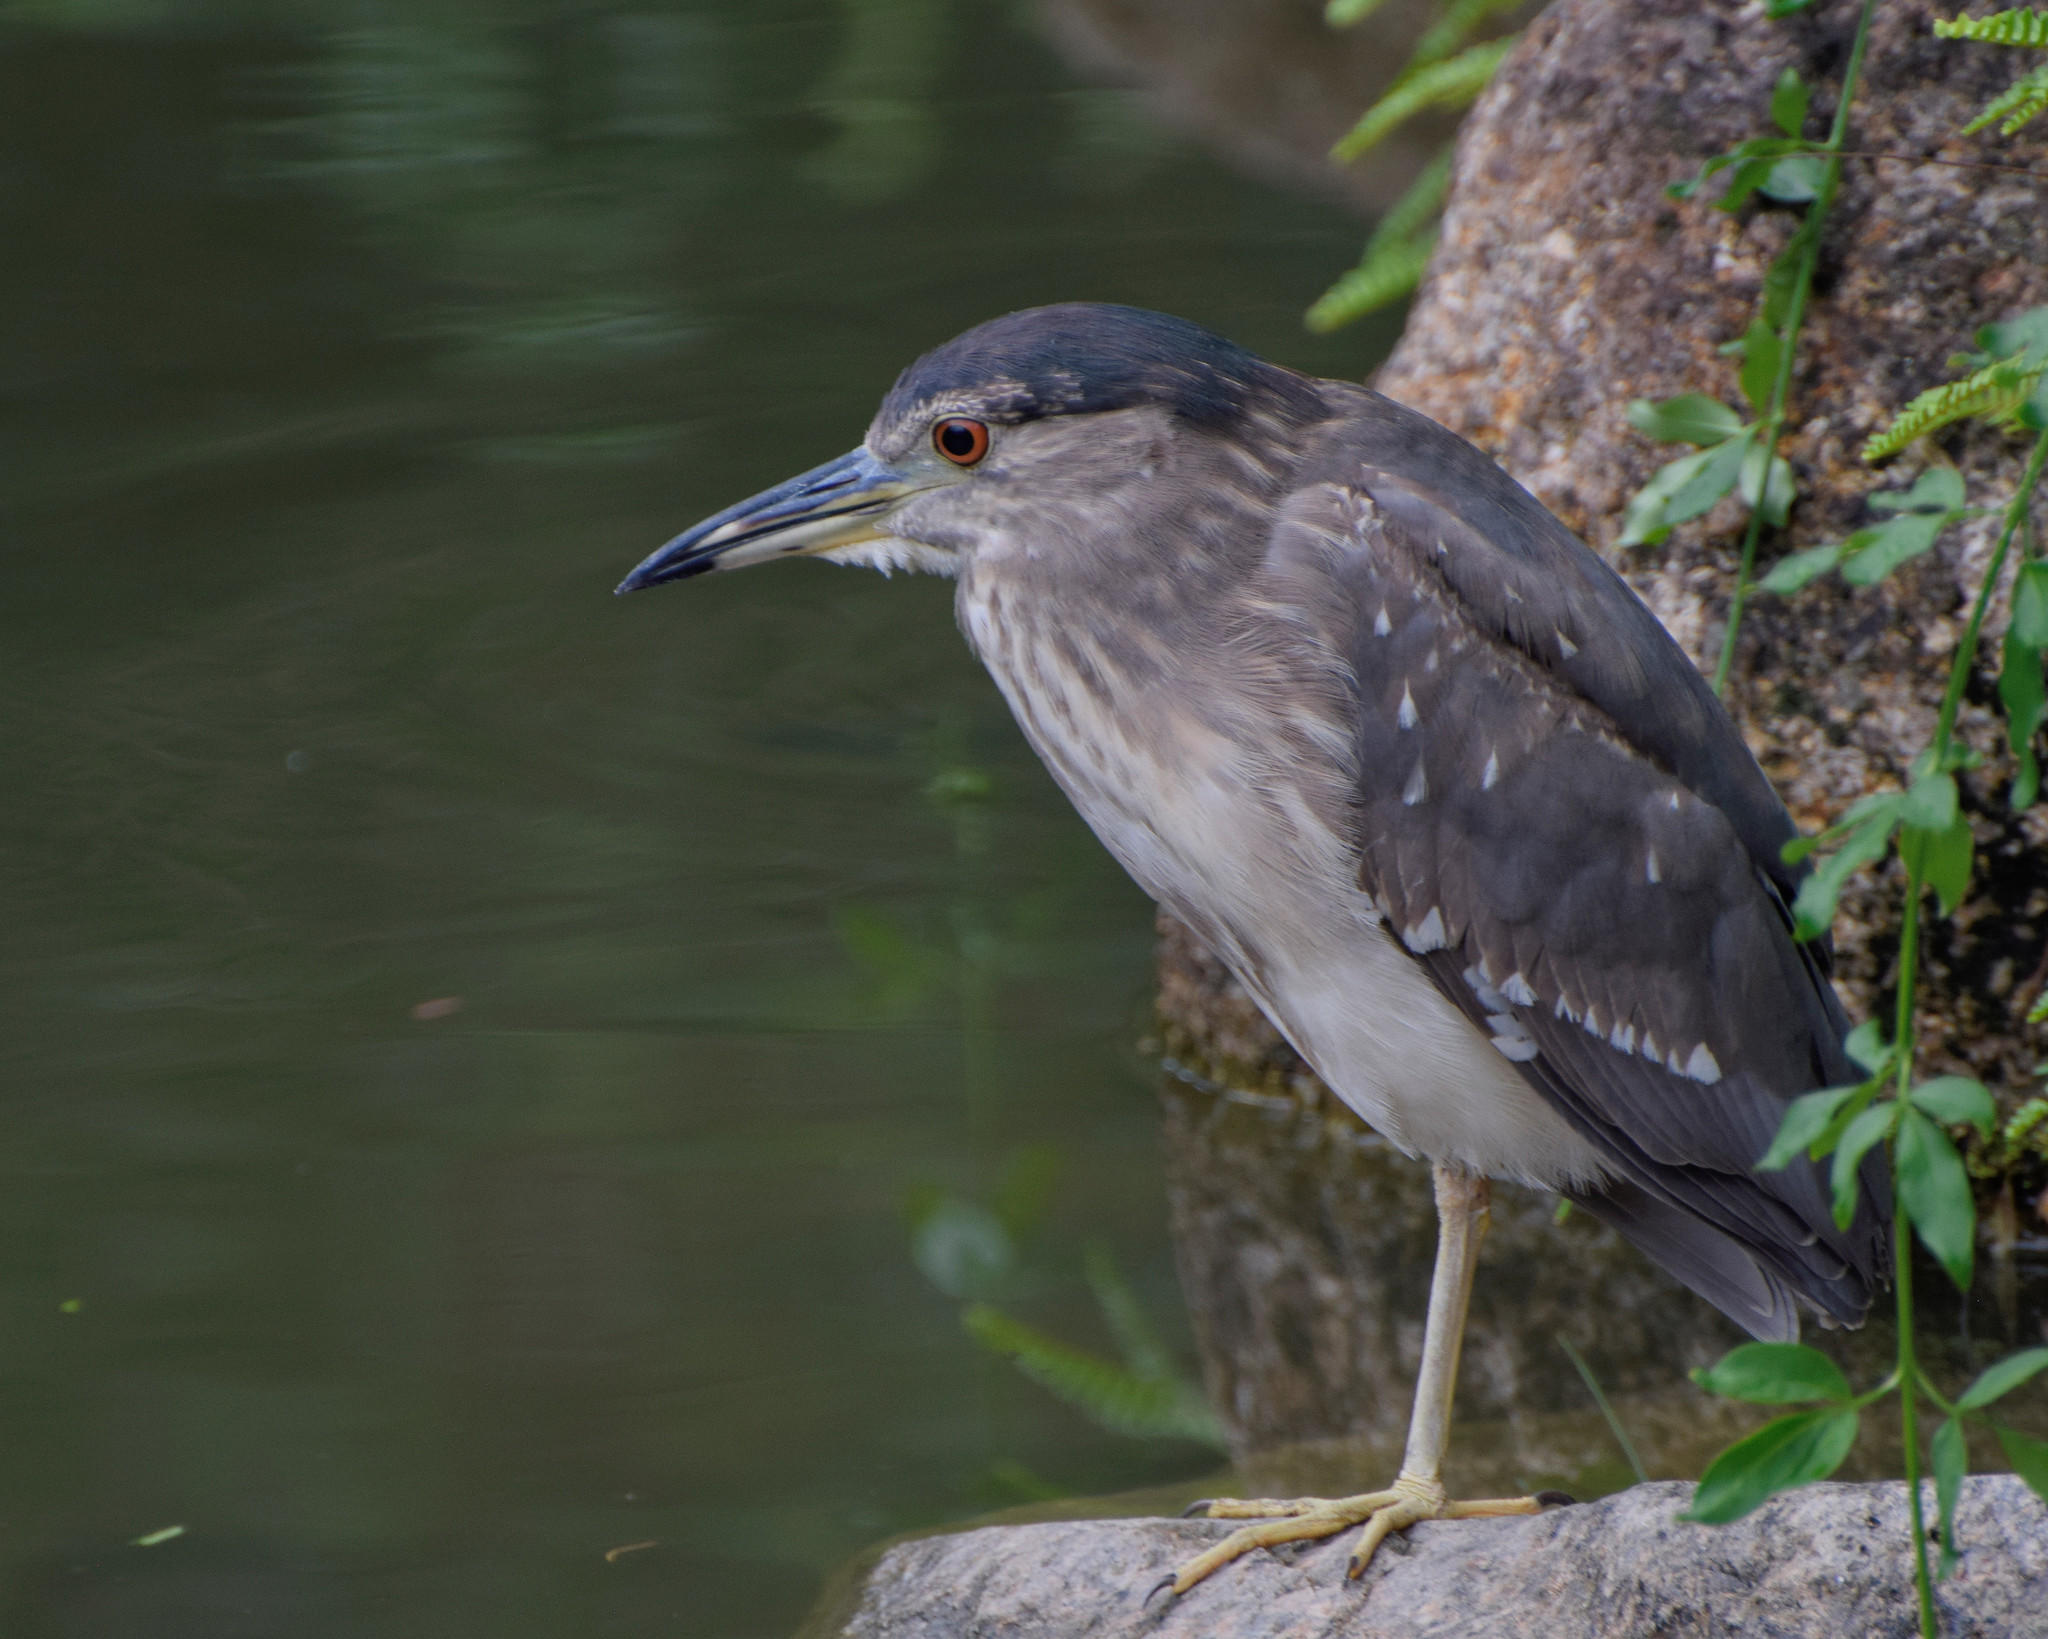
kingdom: Animalia
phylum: Chordata
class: Aves
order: Pelecaniformes
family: Ardeidae
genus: Nycticorax
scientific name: Nycticorax nycticorax
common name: Black-crowned night heron
